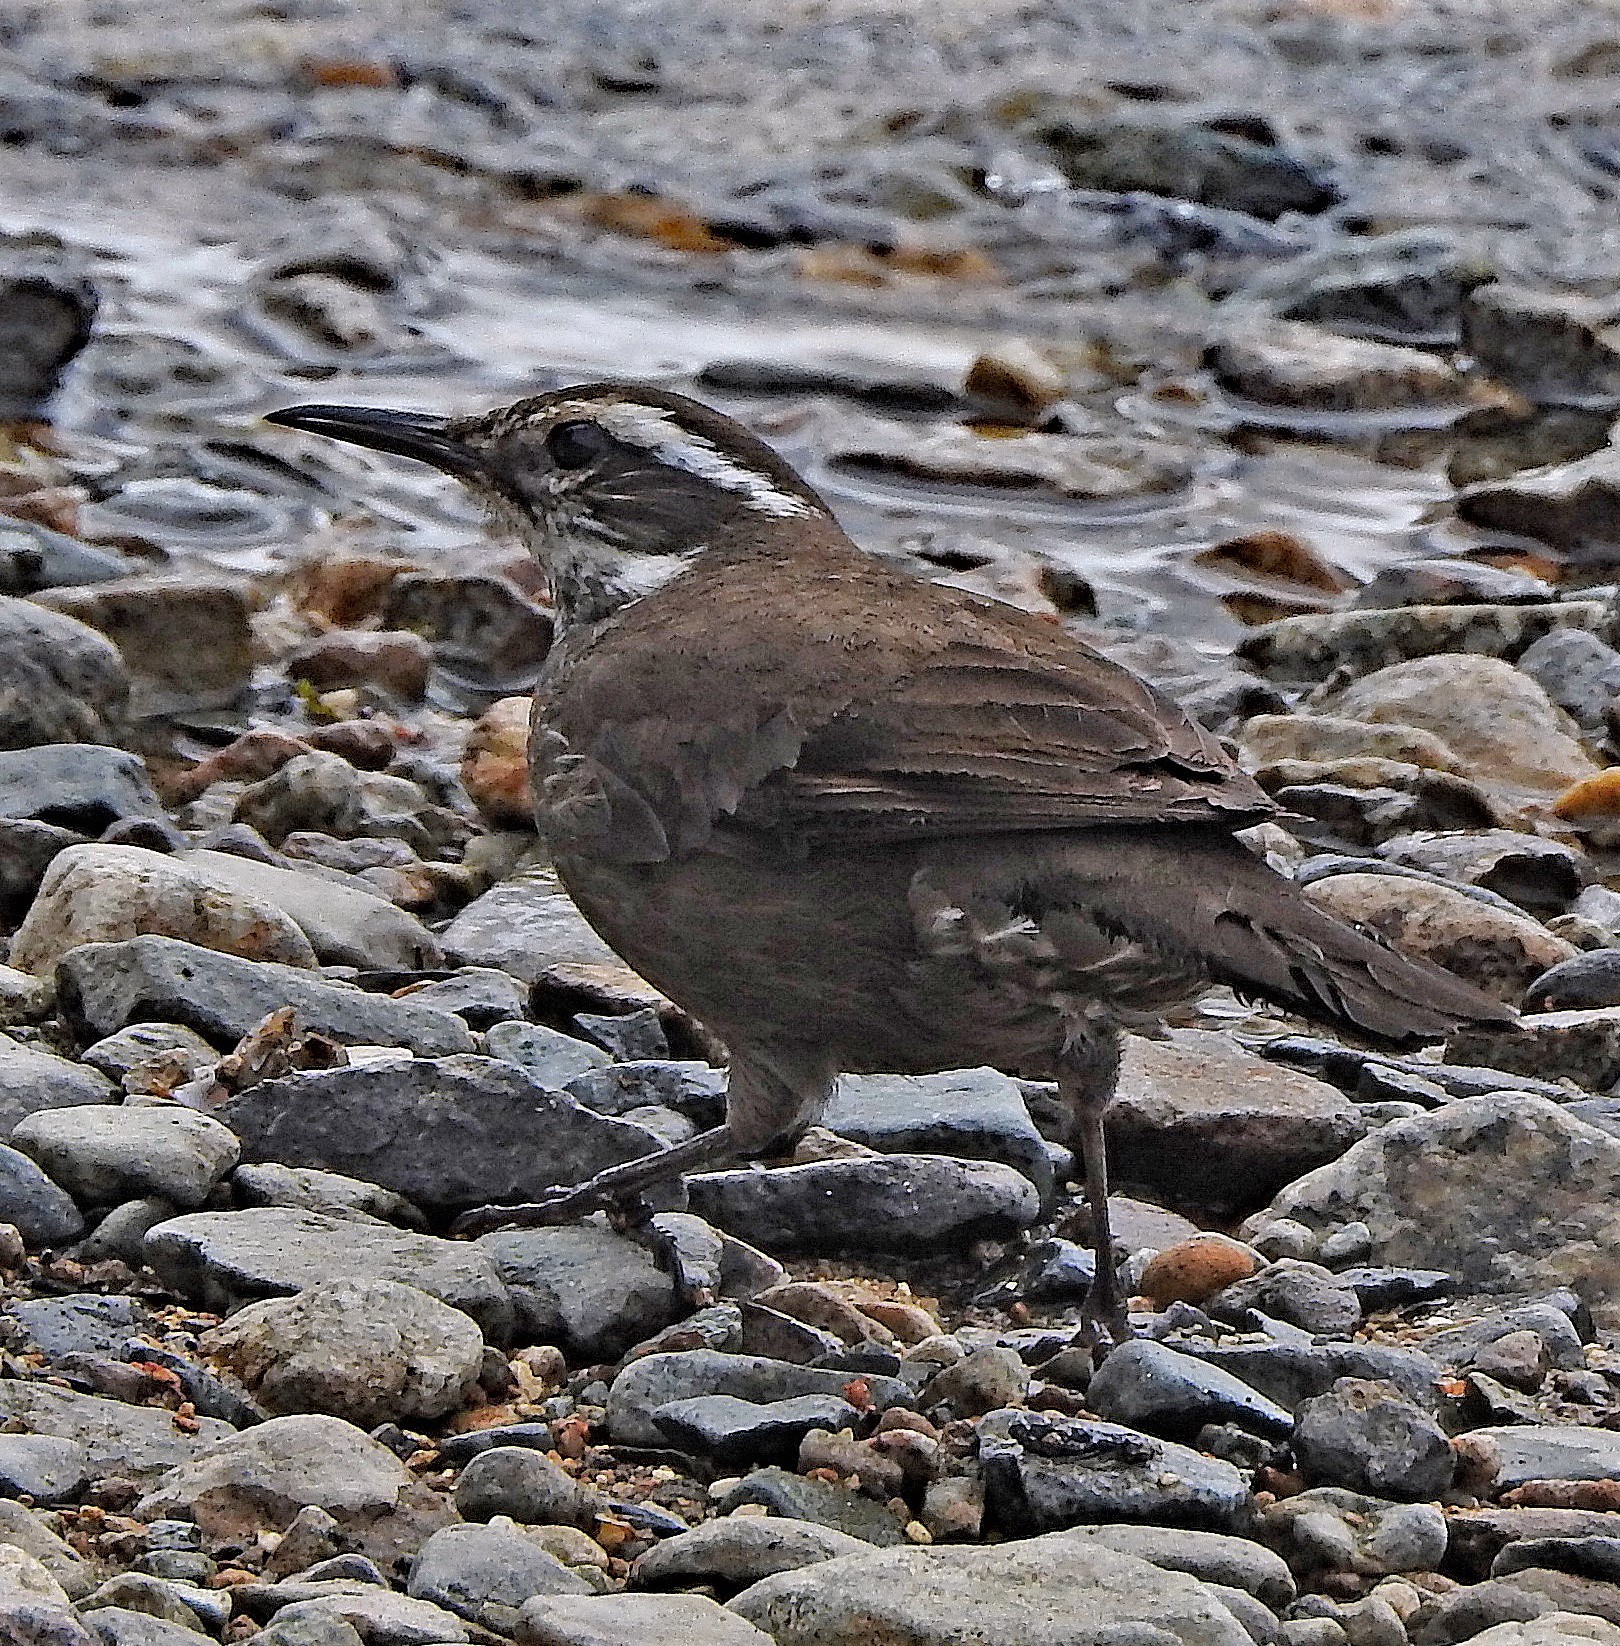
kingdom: Animalia
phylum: Chordata
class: Aves
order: Passeriformes
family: Furnariidae
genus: Cinclodes
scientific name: Cinclodes patagonicus
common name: Dark-bellied cinclodes
